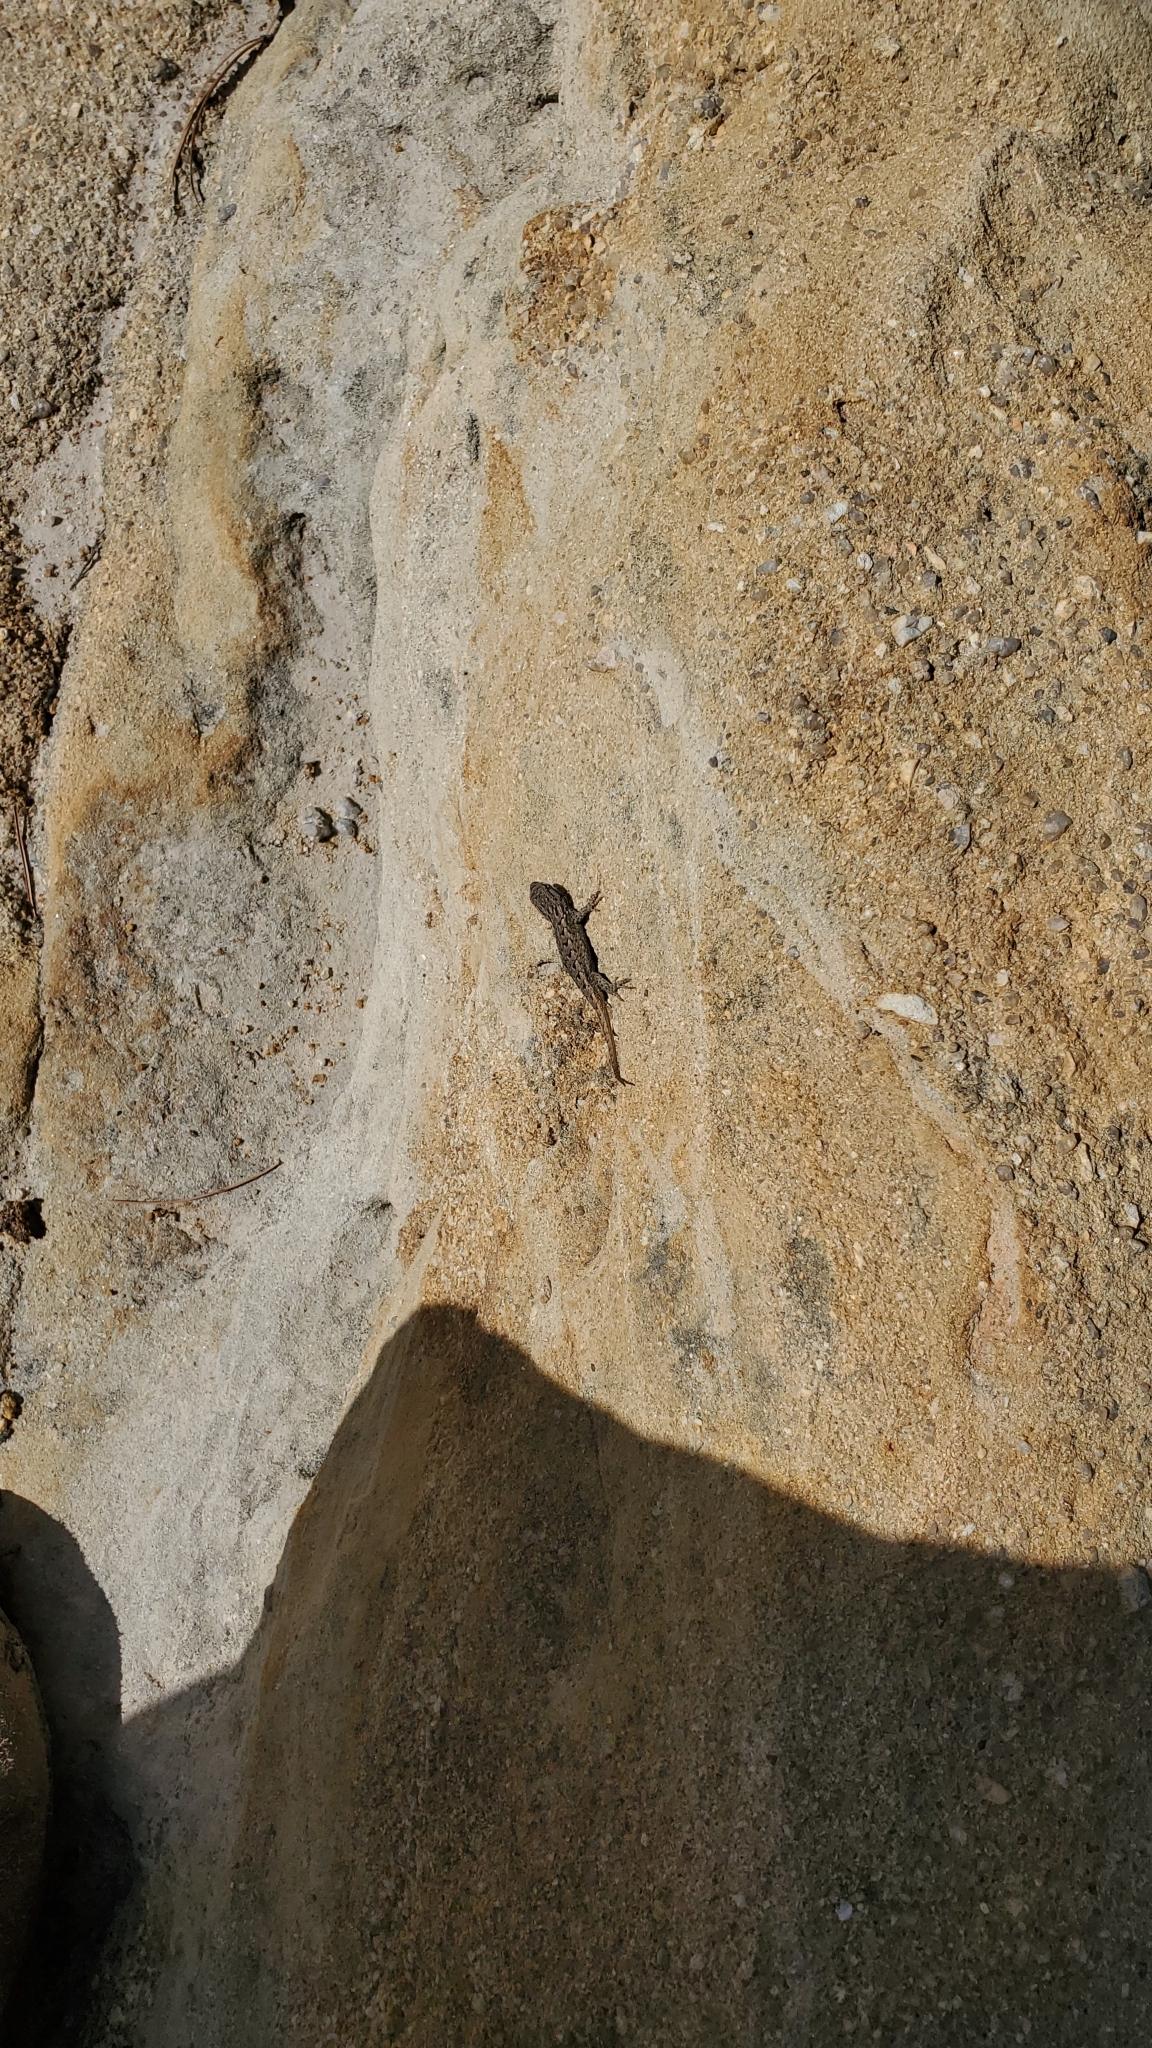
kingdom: Animalia
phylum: Chordata
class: Squamata
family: Phrynosomatidae
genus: Sceloporus
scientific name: Sceloporus consobrinus
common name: Southern prairie lizard
